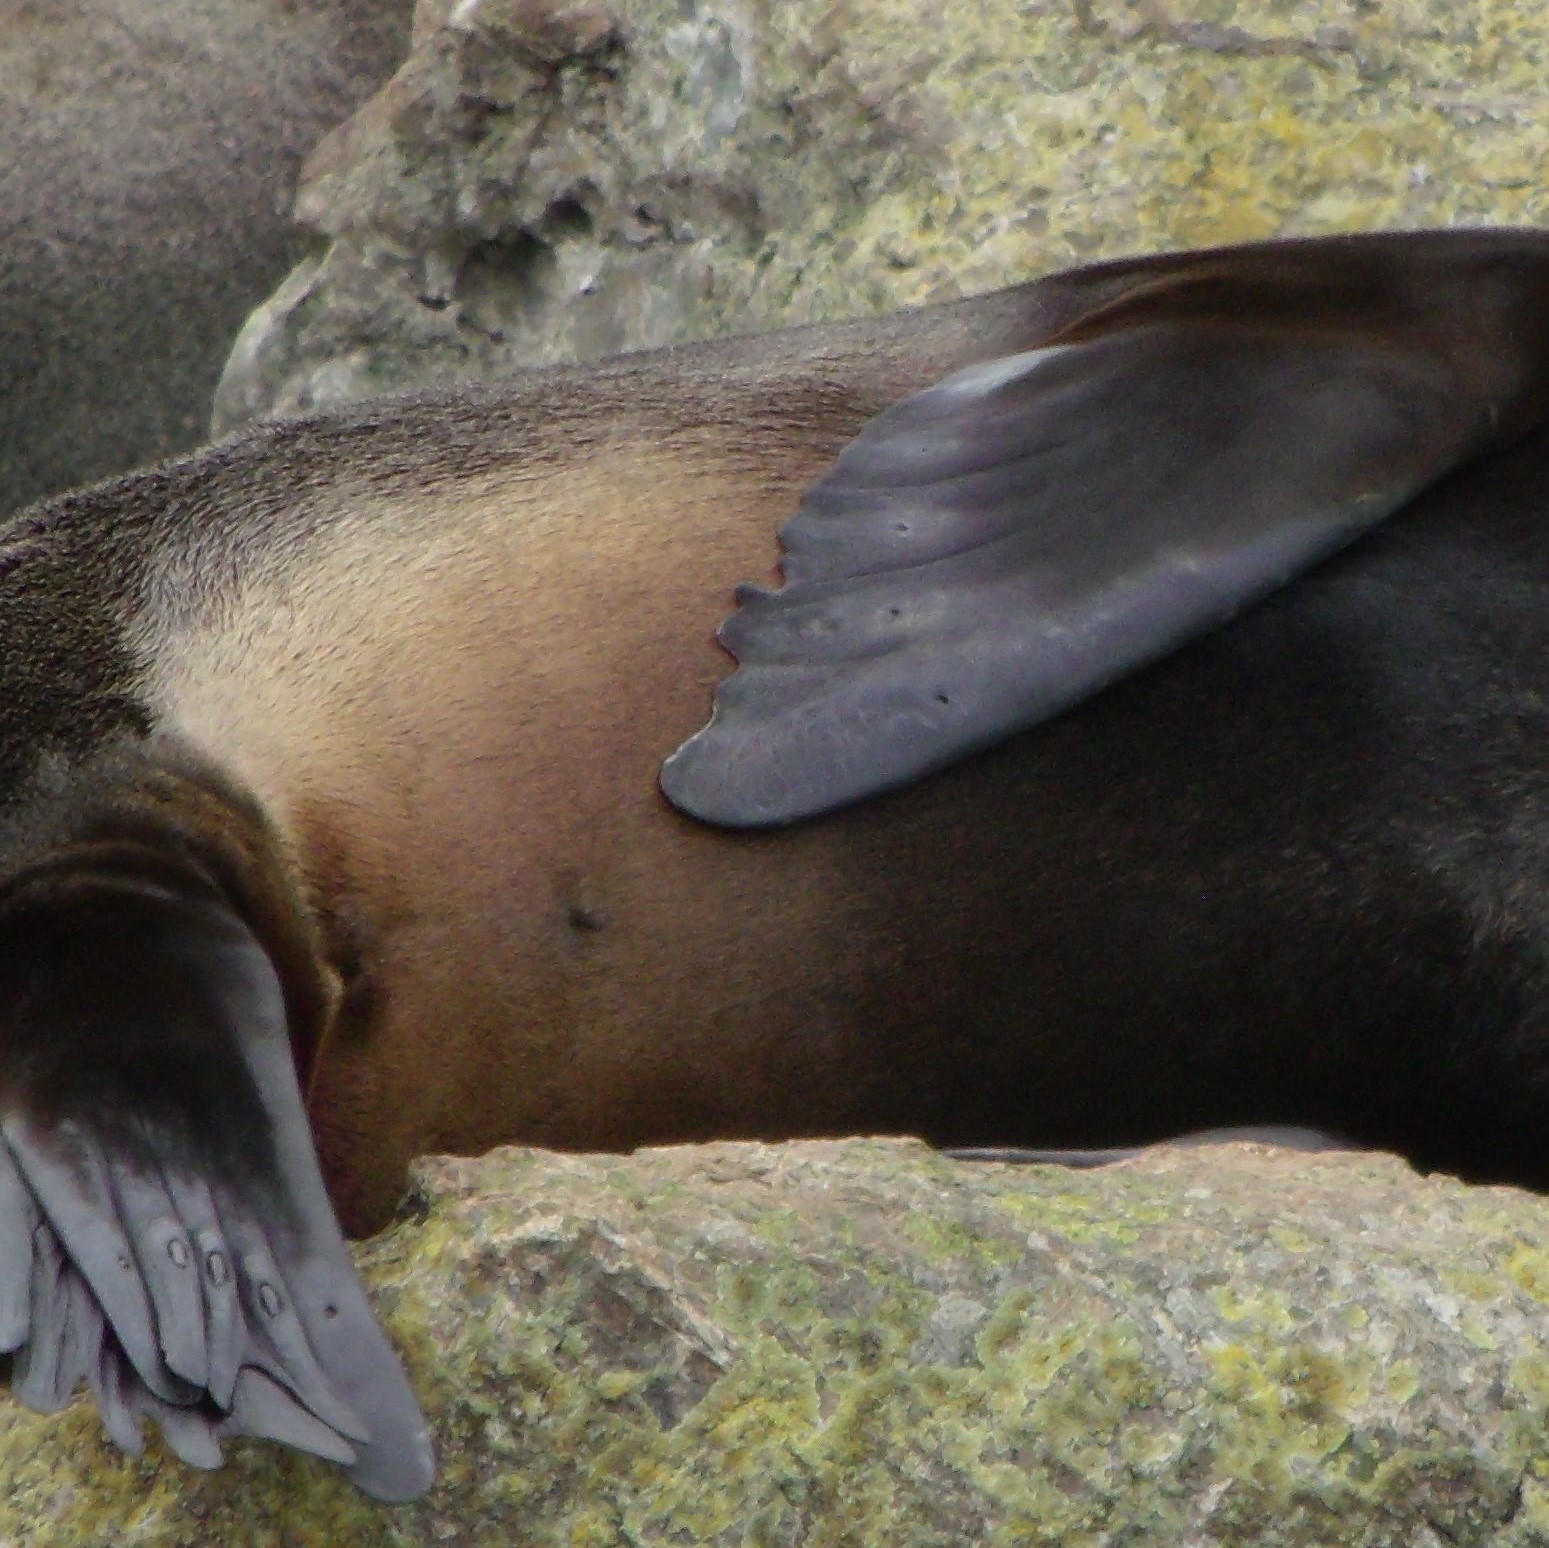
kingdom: Animalia
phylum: Chordata
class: Mammalia
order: Carnivora
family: Otariidae
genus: Arctocephalus
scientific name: Arctocephalus forsteri
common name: New zealand fur seal
